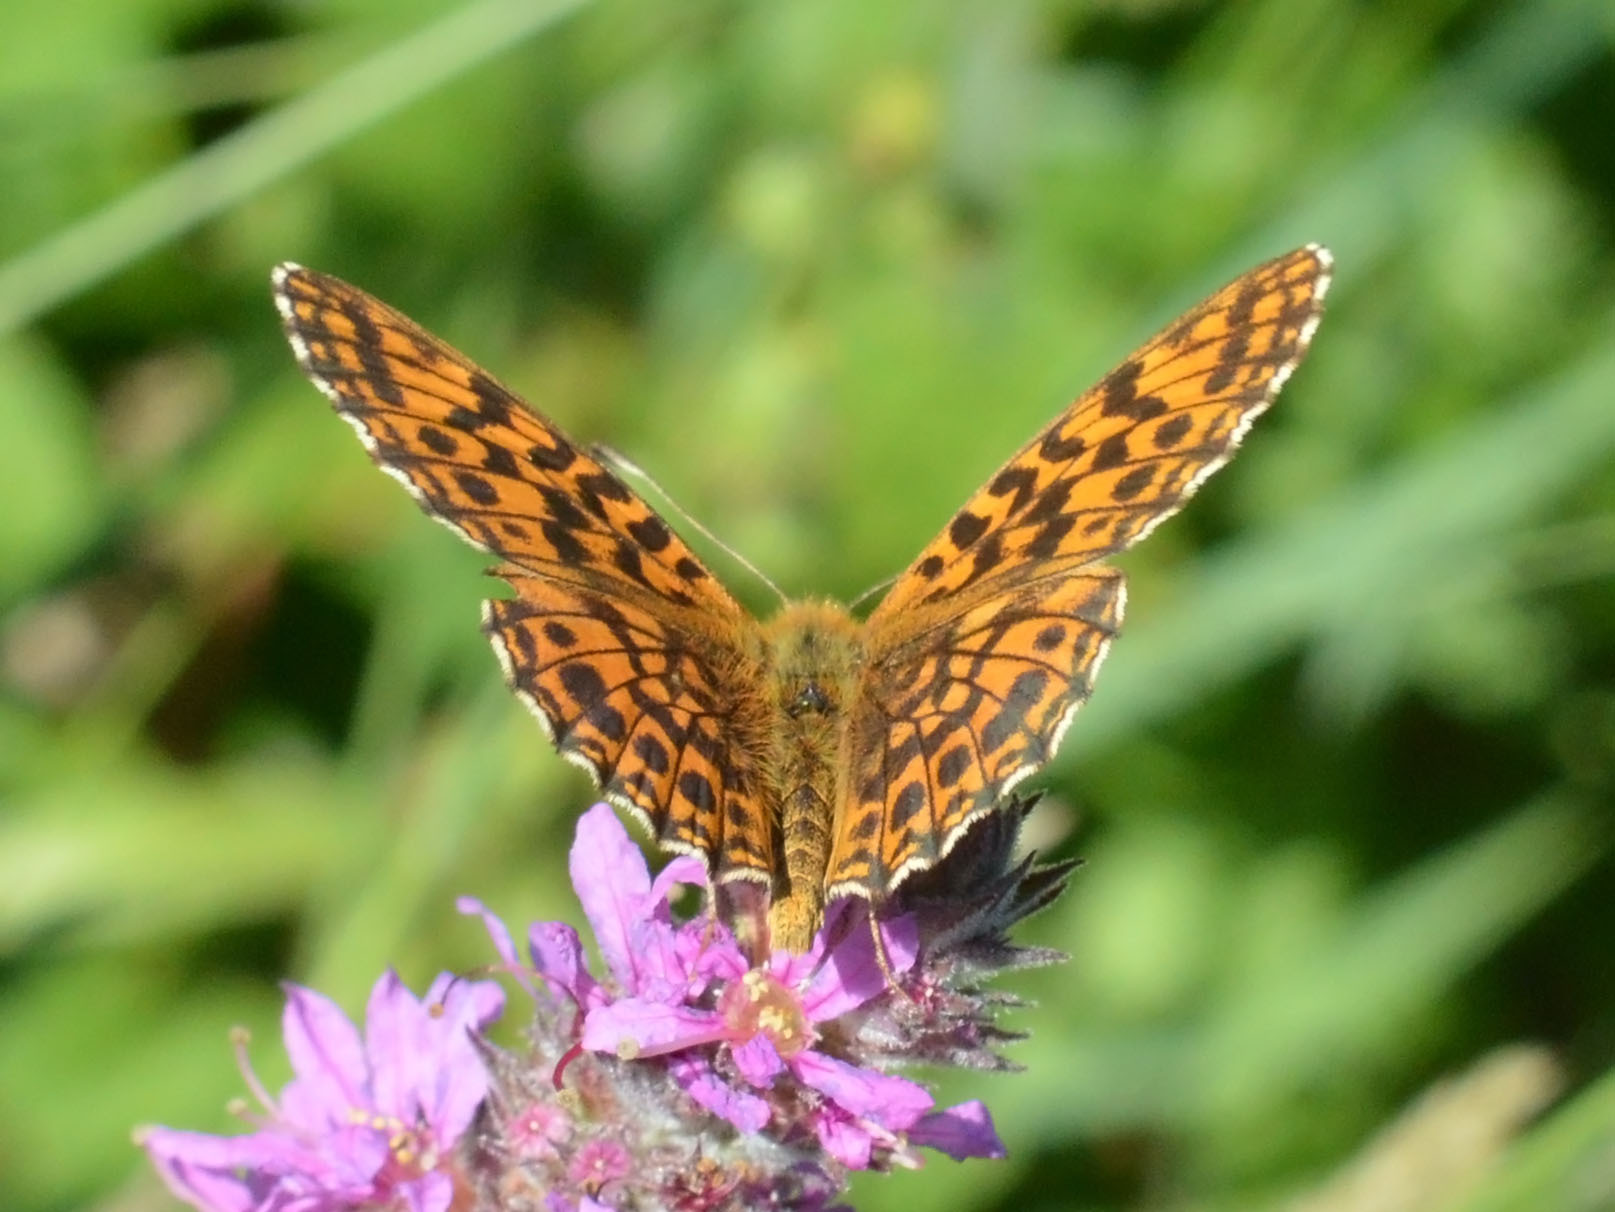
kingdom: Animalia
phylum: Arthropoda
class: Insecta
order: Lepidoptera
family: Nymphalidae
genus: Boloria
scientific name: Boloria dia
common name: Weaver's fritillary
